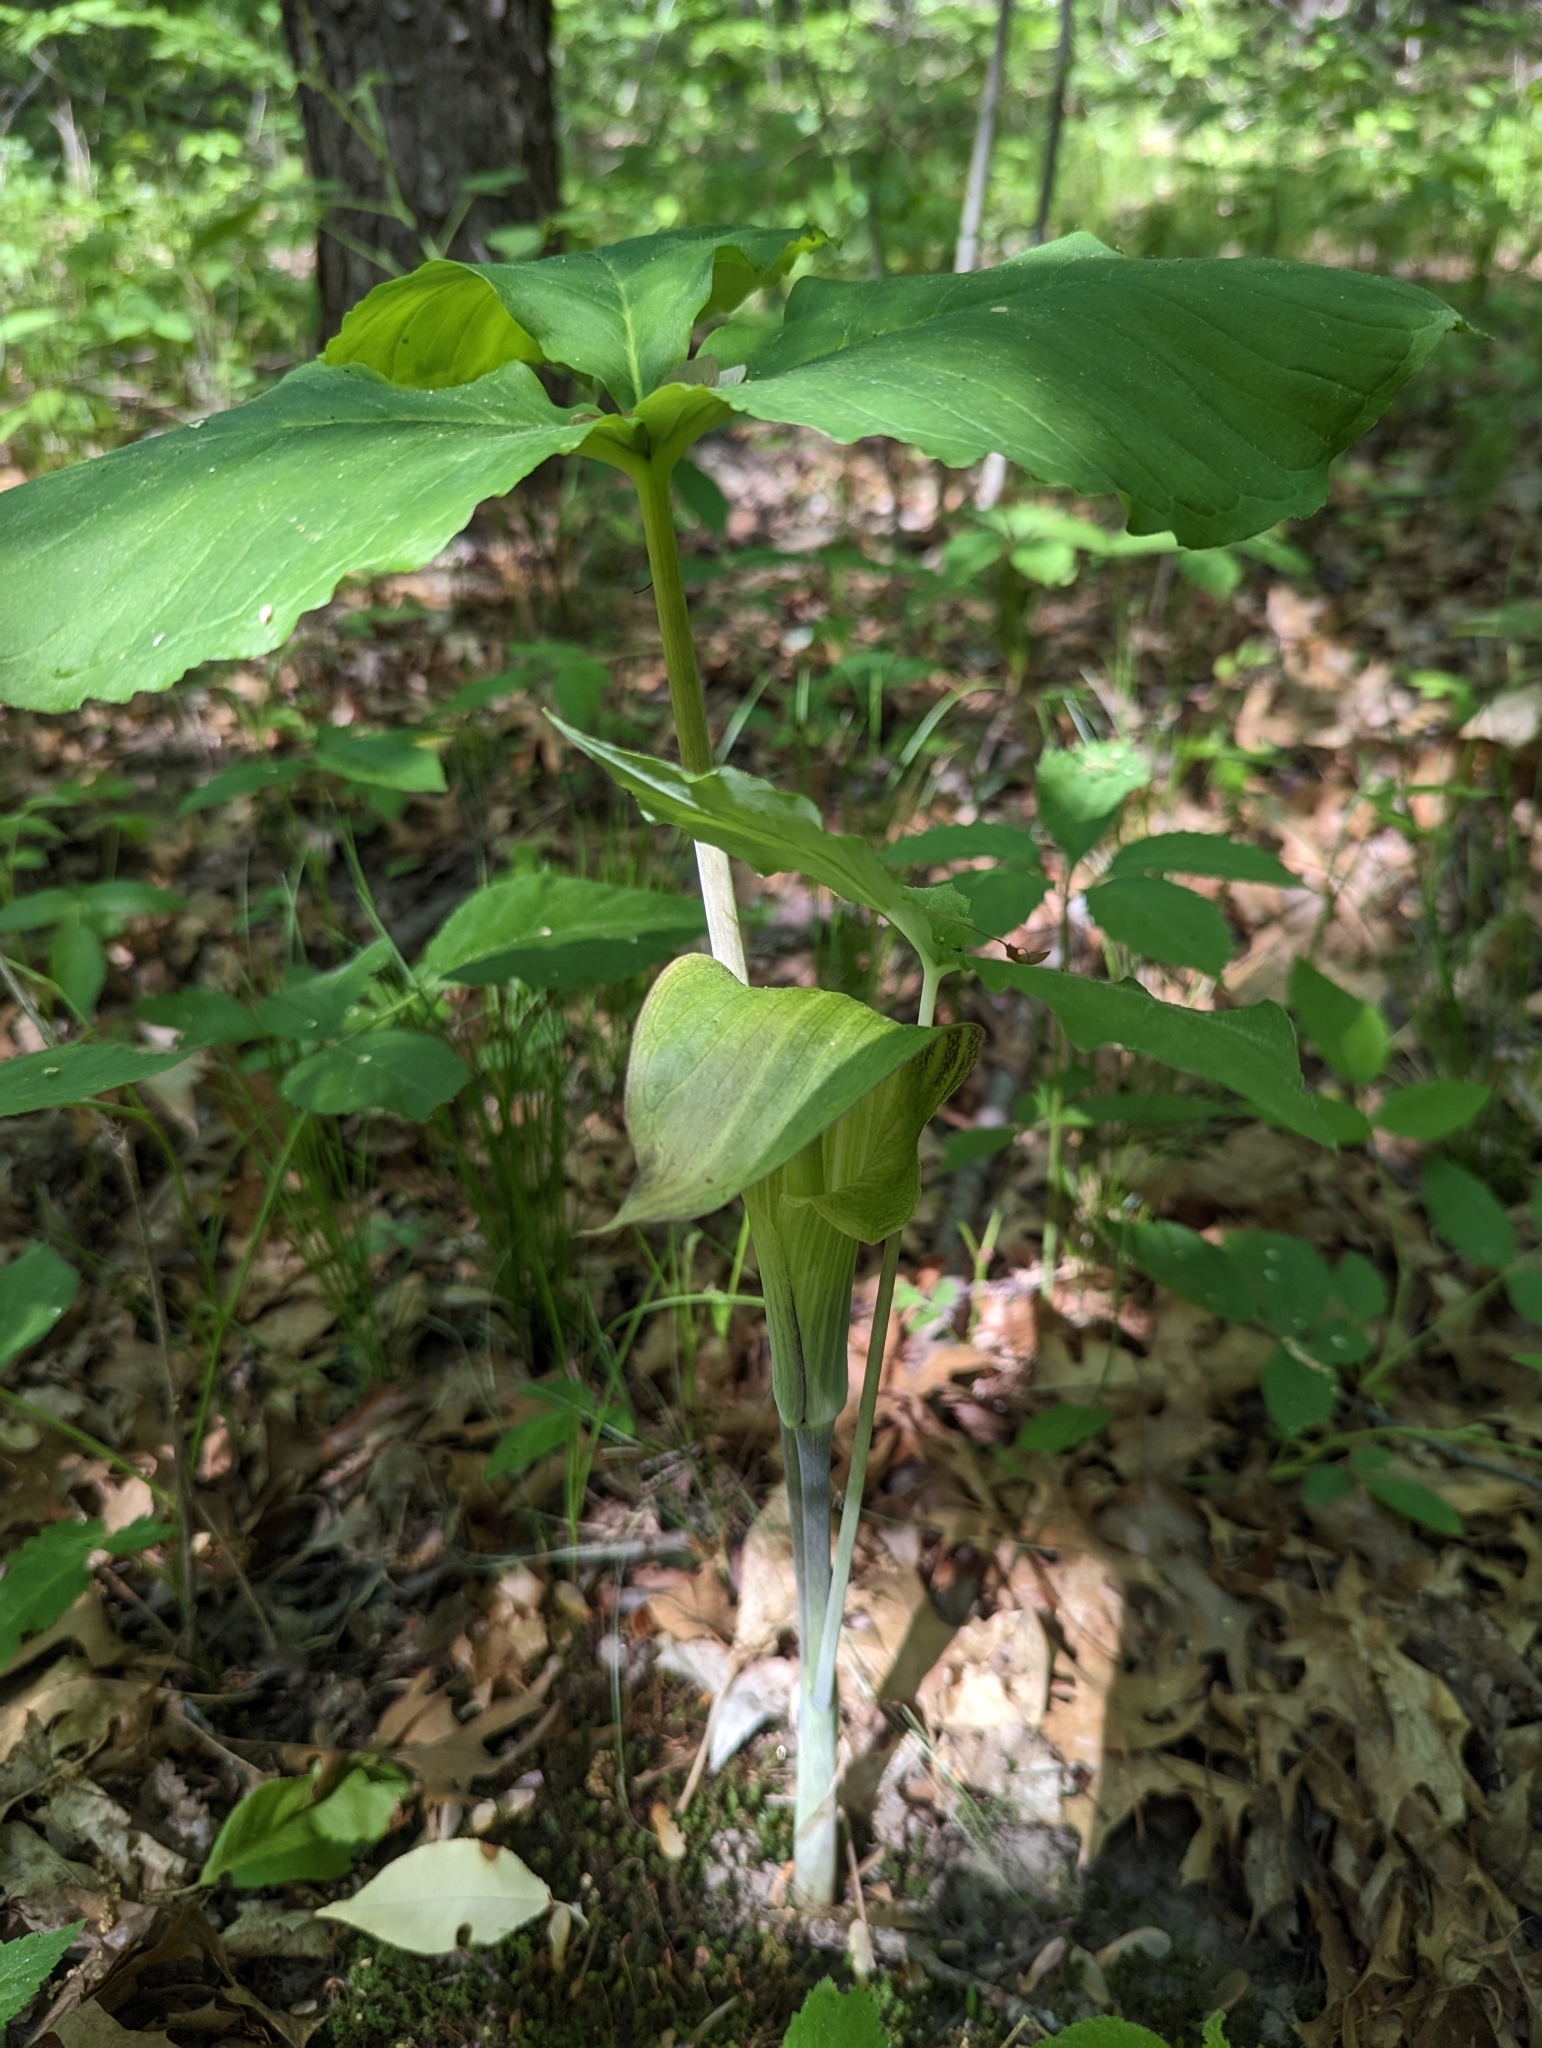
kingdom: Plantae
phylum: Tracheophyta
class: Liliopsida
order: Alismatales
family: Araceae
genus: Arisaema
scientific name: Arisaema triphyllum
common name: Jack-in-the-pulpit
